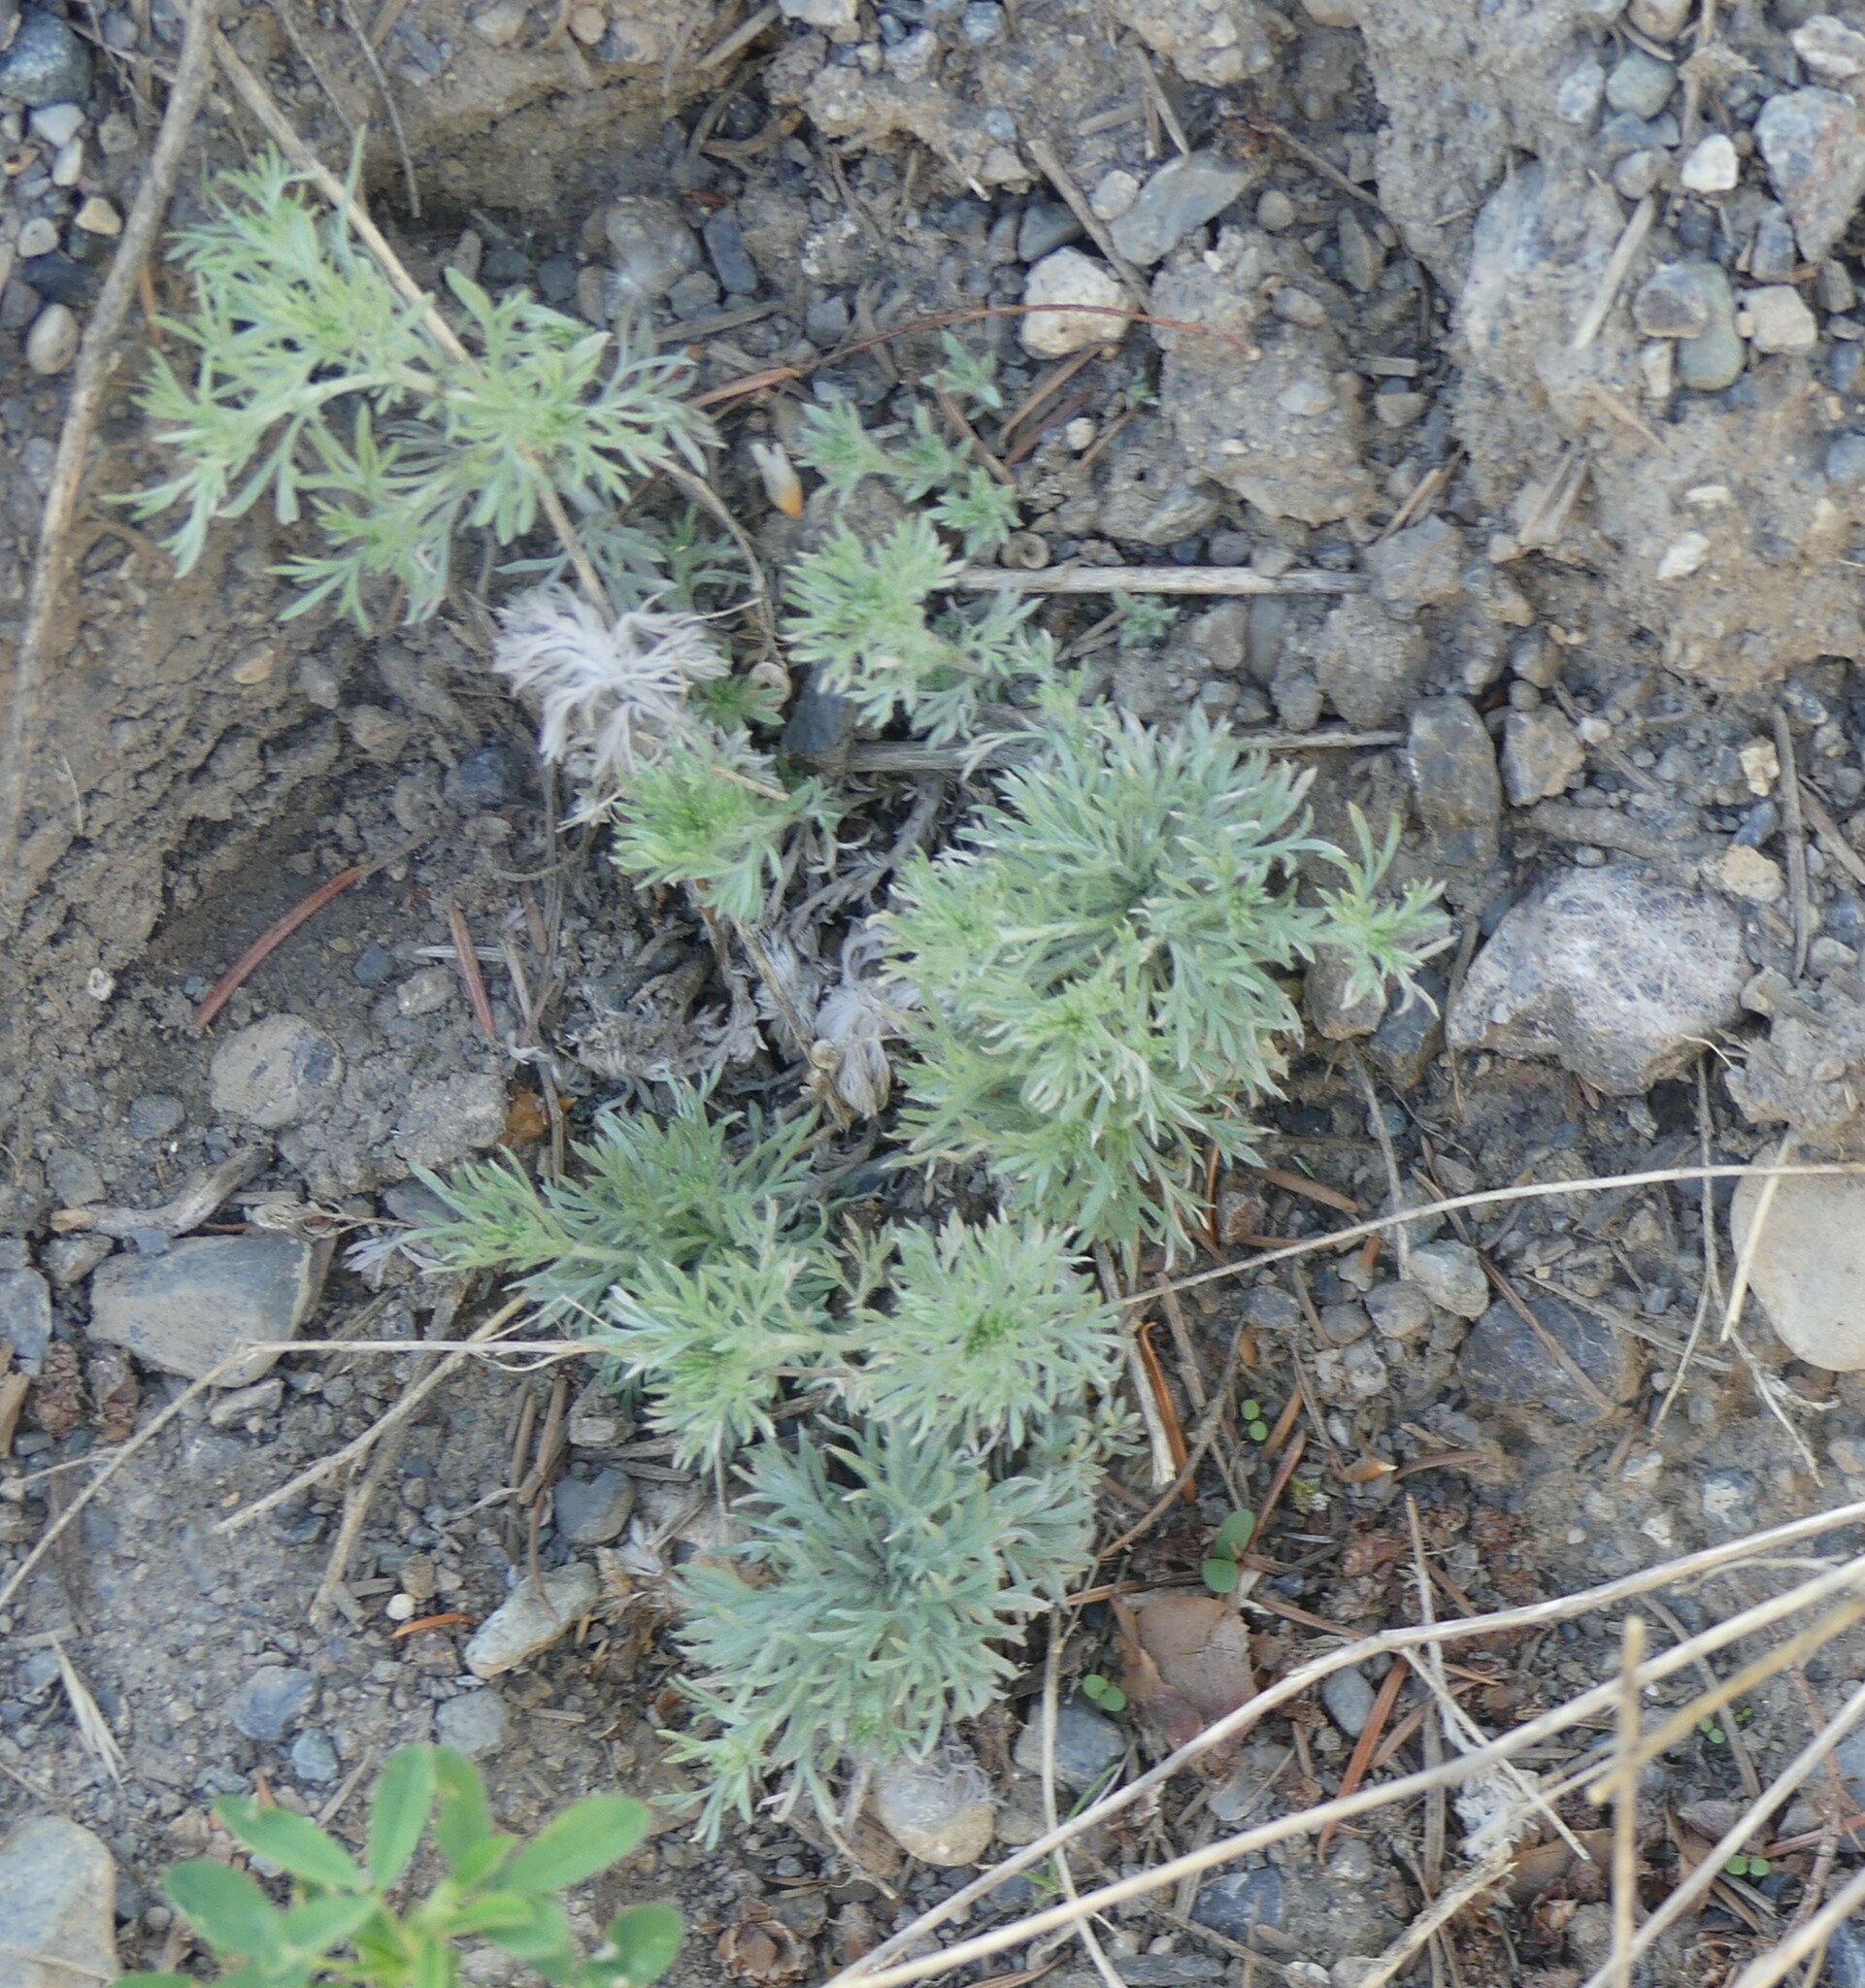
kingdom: Plantae
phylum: Tracheophyta
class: Magnoliopsida
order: Asterales
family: Asteraceae
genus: Artemisia
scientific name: Artemisia frigida
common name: Prairie sagewort
